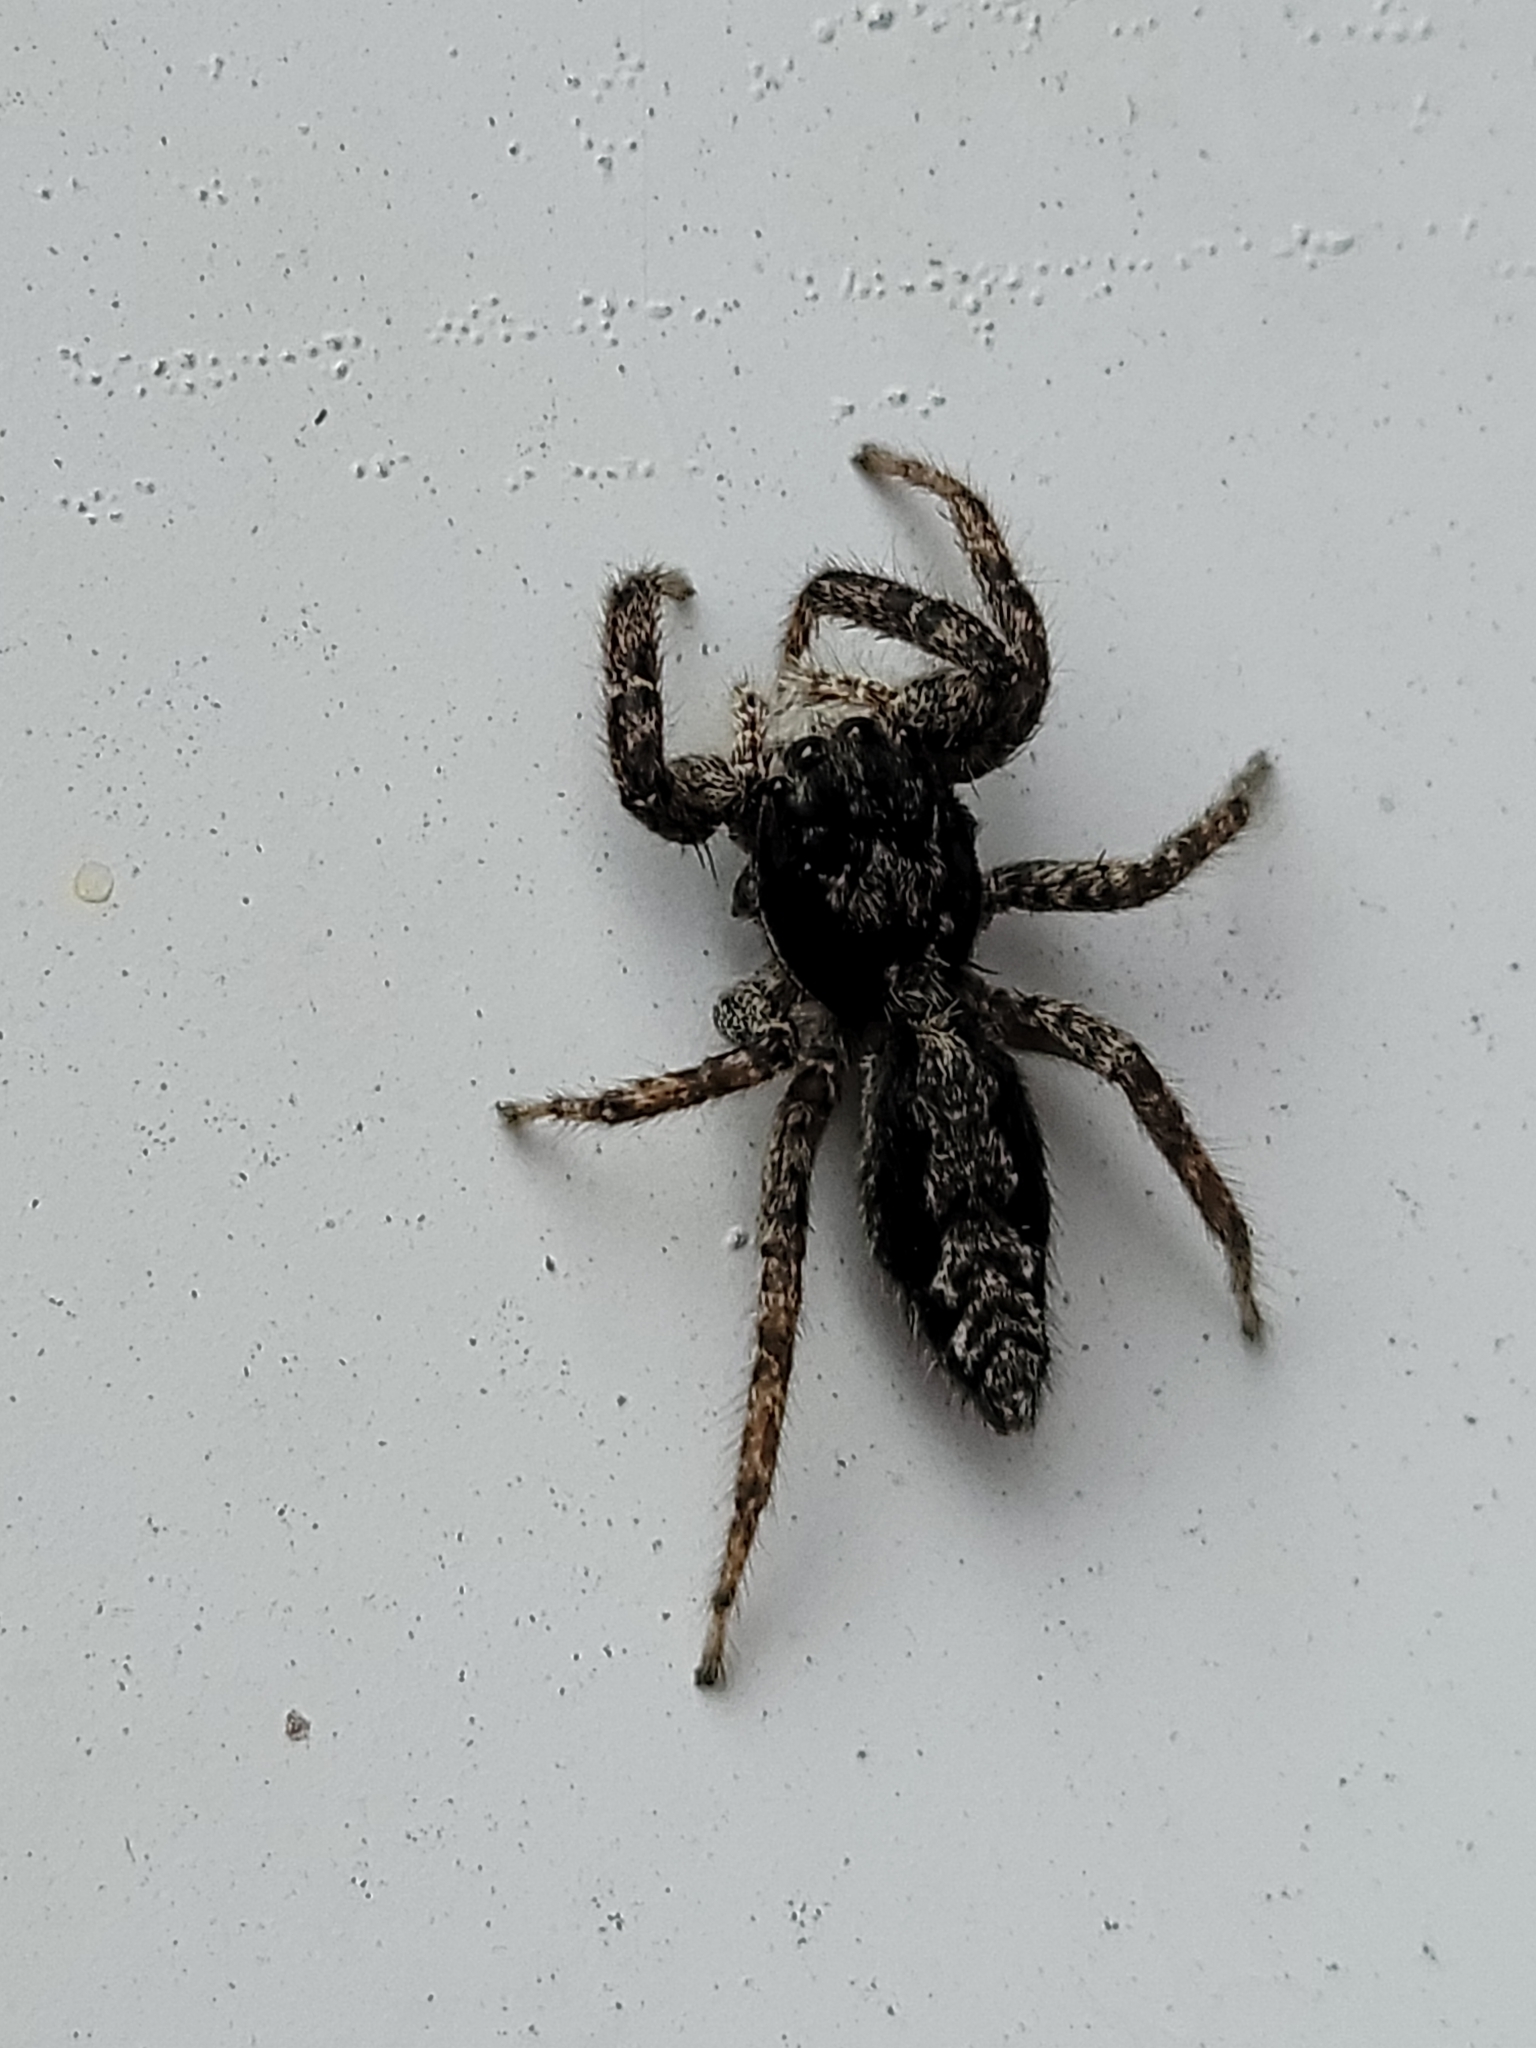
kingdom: Animalia
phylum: Arthropoda
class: Arachnida
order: Araneae
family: Salticidae
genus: Platycryptus
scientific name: Platycryptus californicus
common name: Jumping spiders
